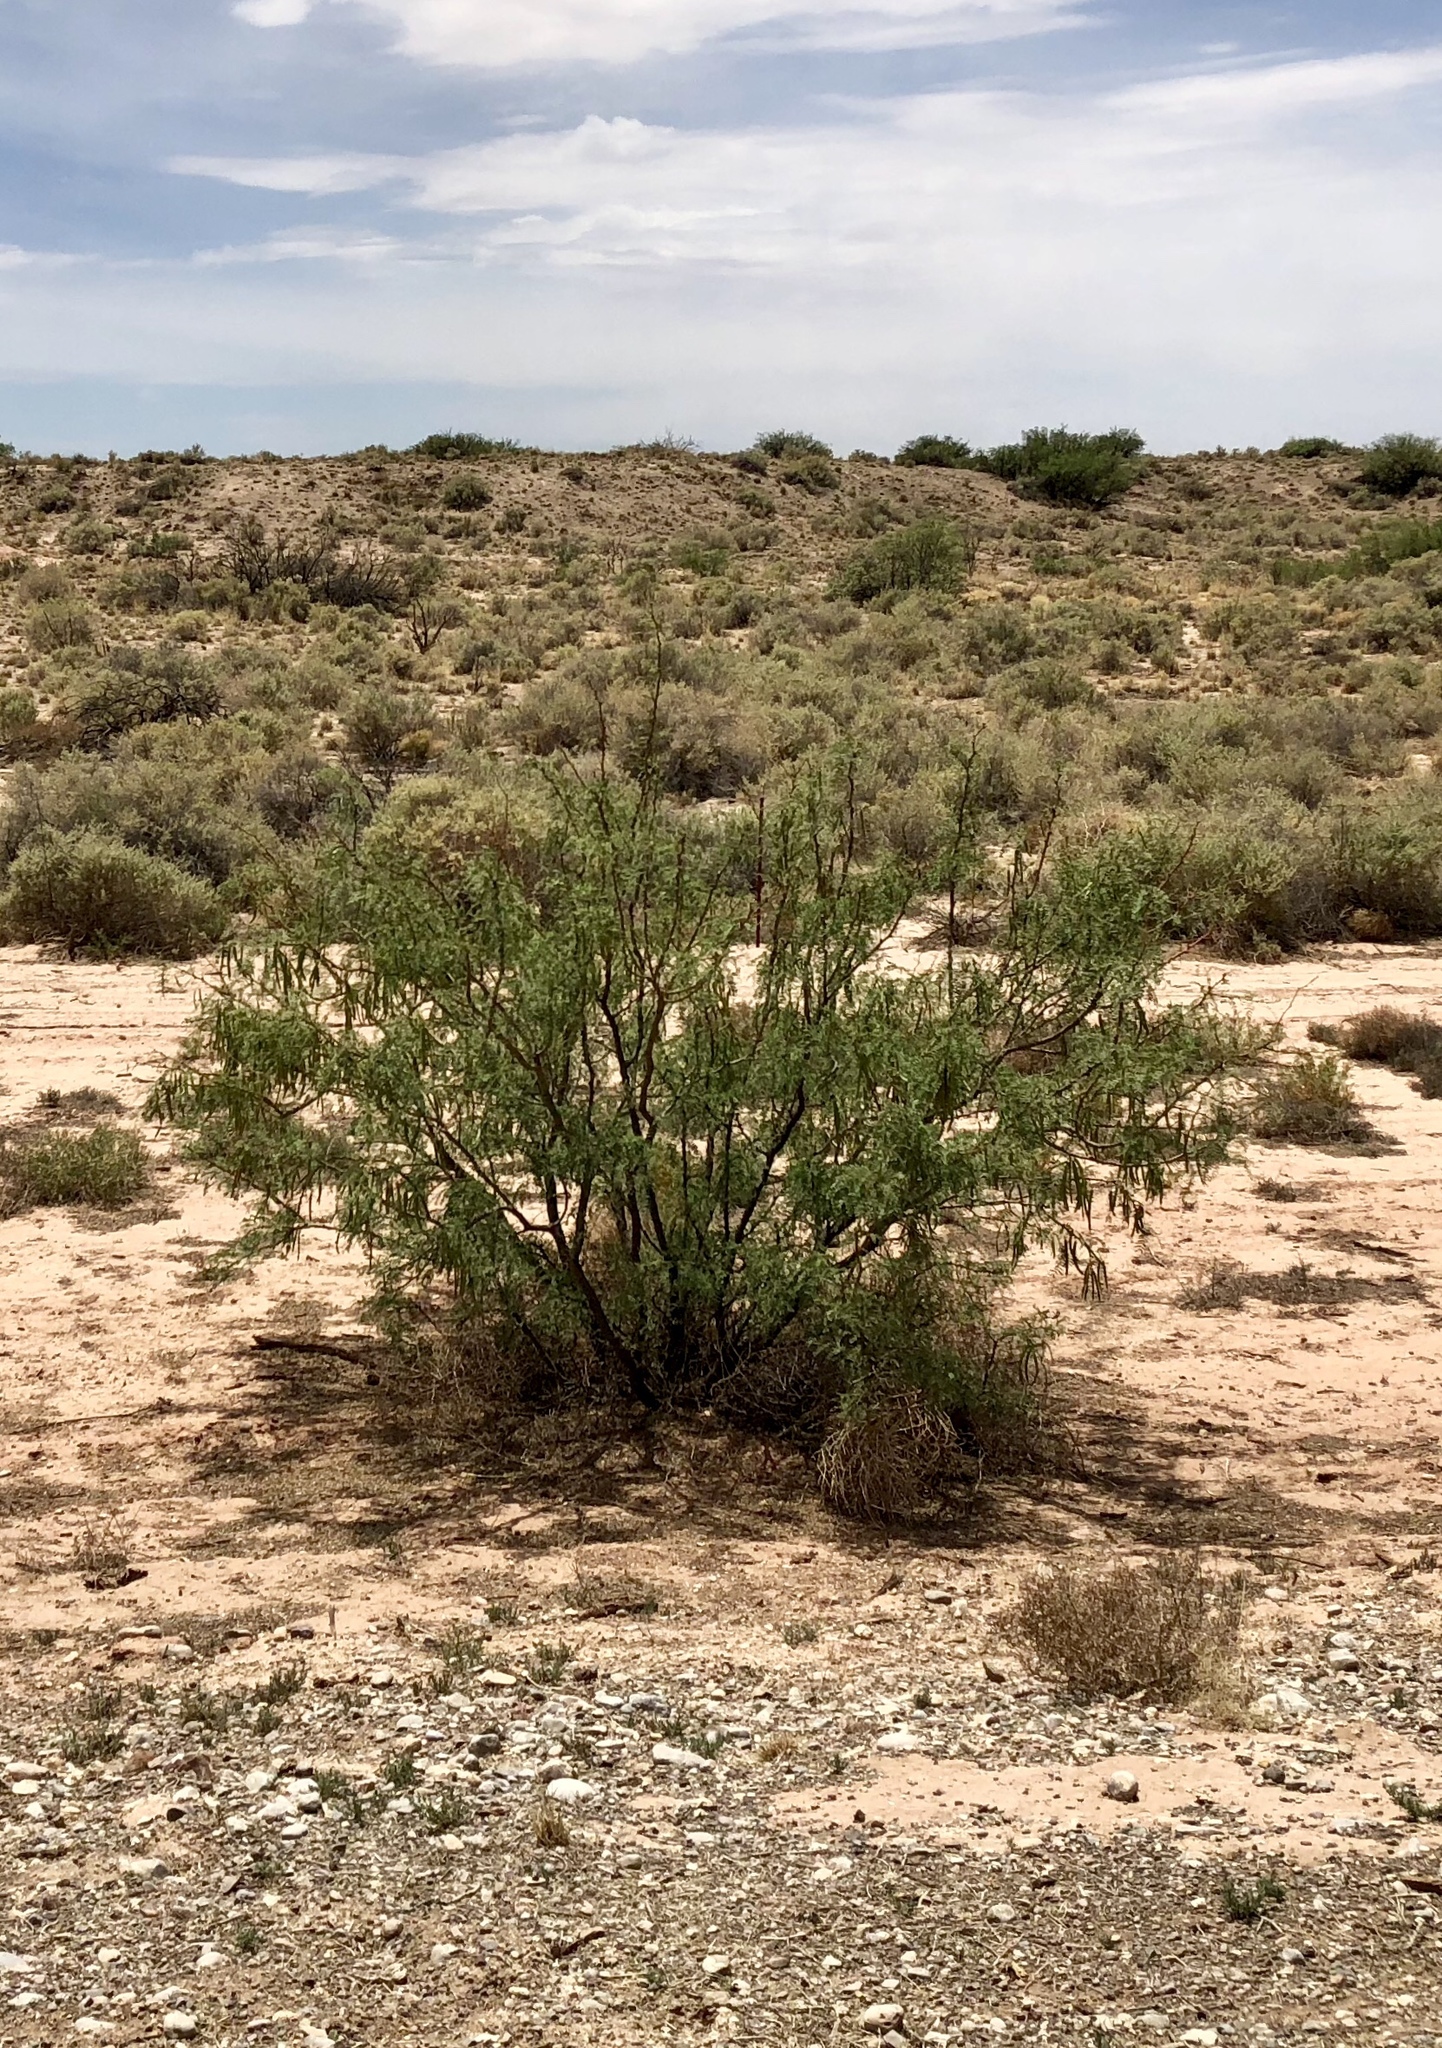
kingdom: Plantae
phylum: Tracheophyta
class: Magnoliopsida
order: Fabales
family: Fabaceae
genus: Prosopis
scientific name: Prosopis glandulosa
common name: Honey mesquite
